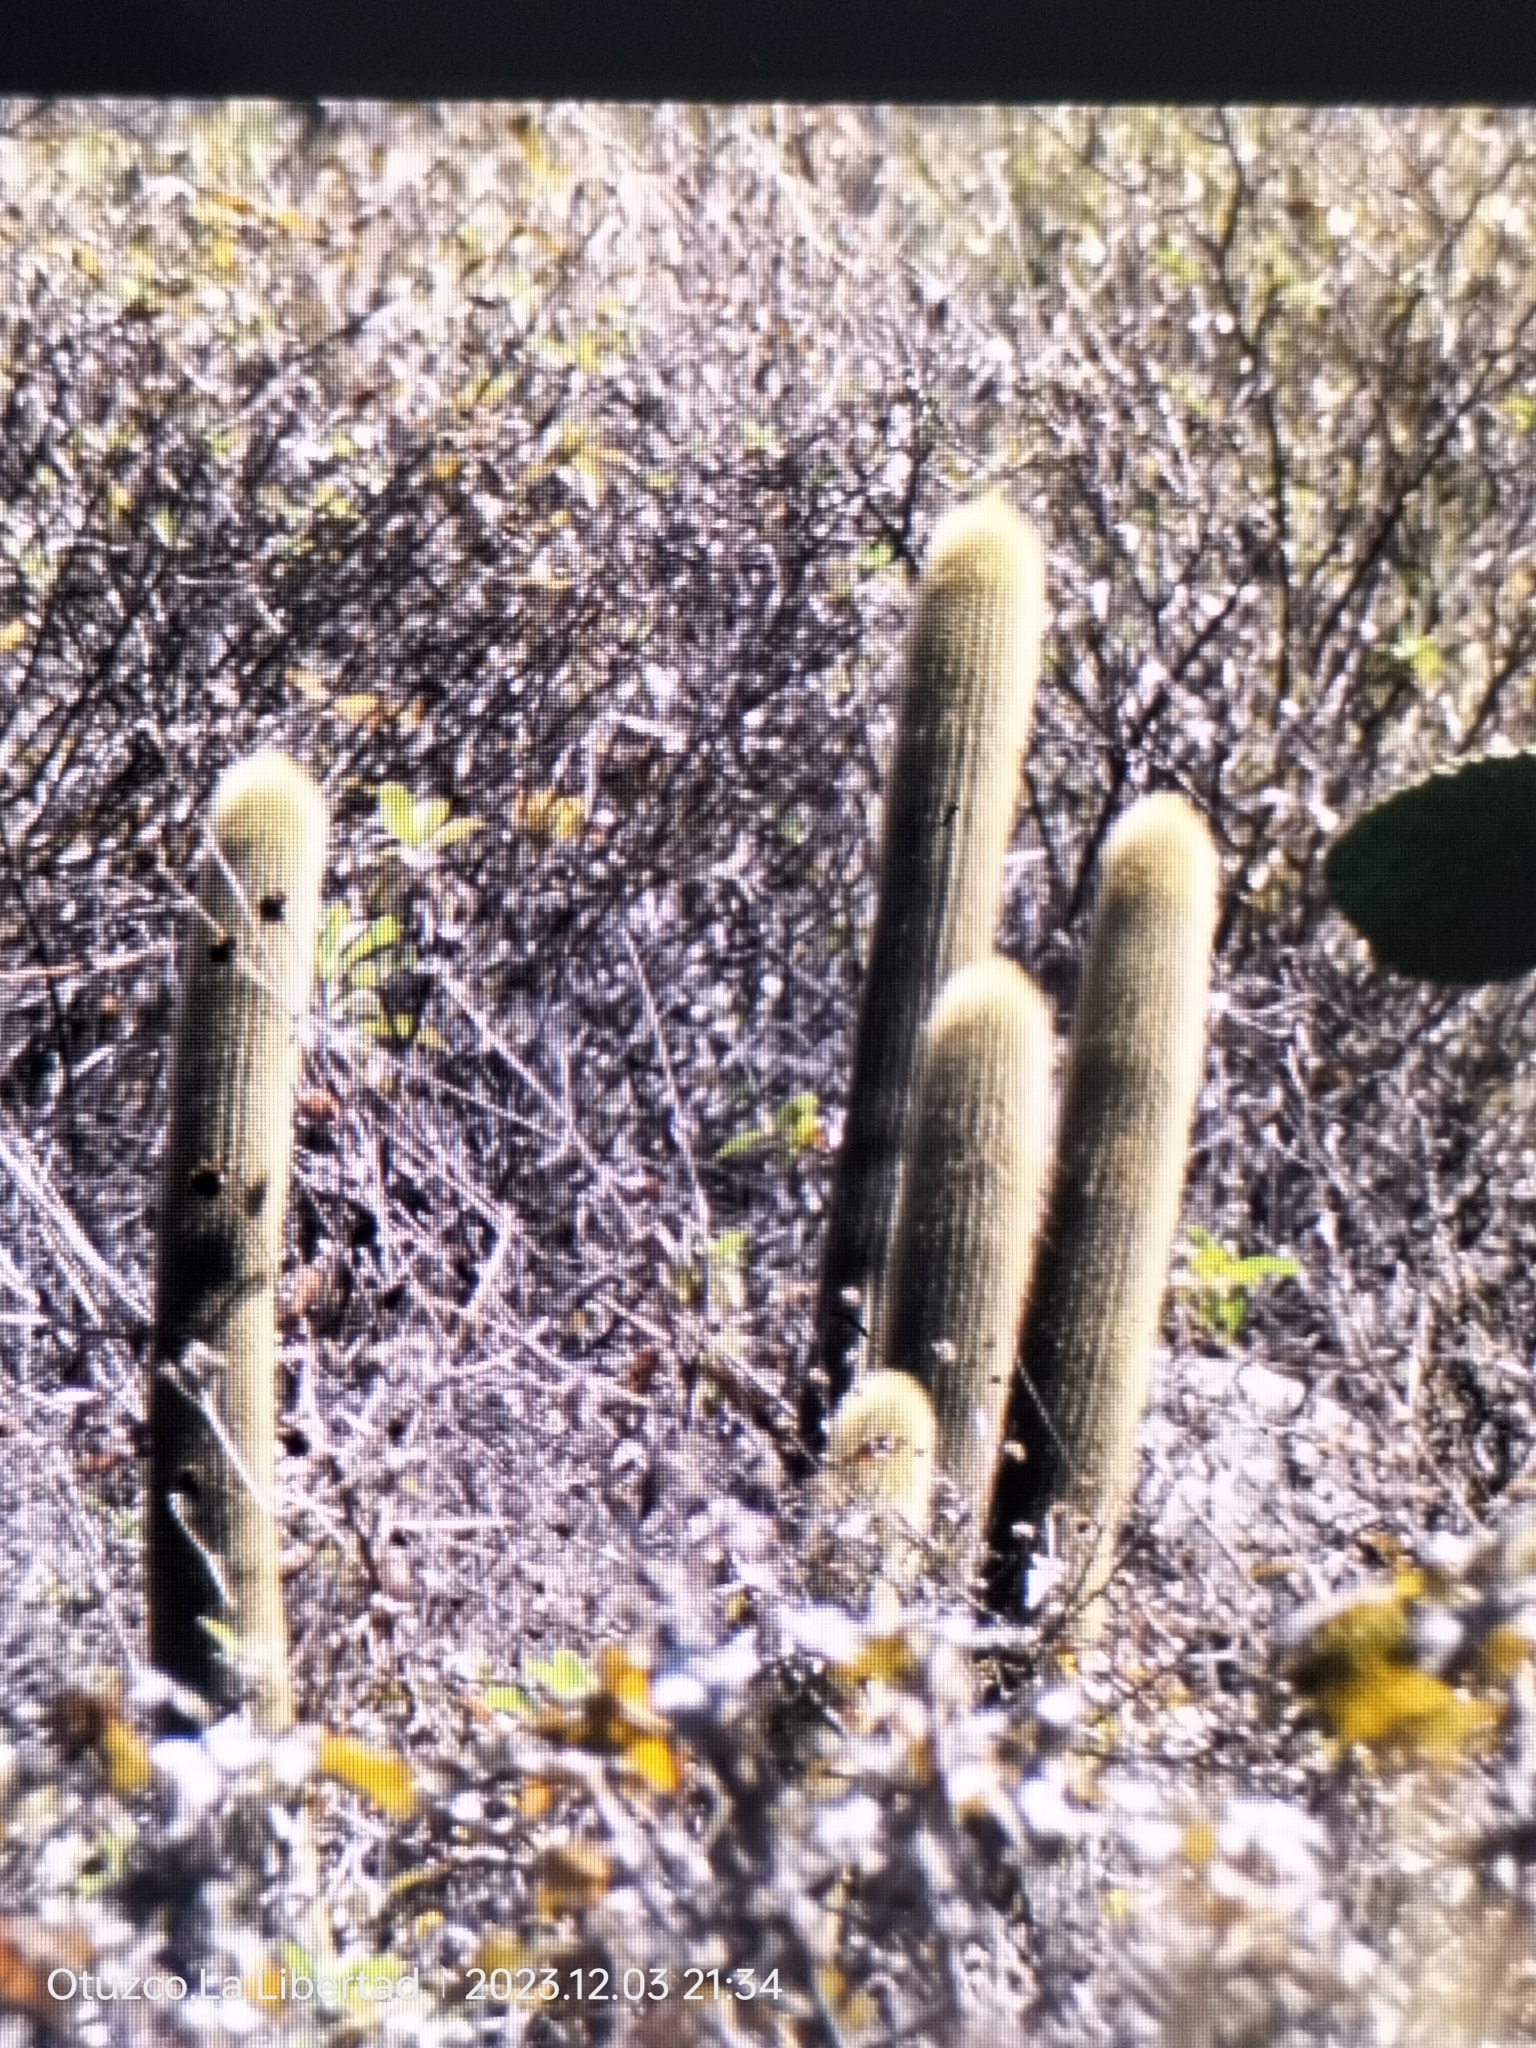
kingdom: Plantae
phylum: Tracheophyta
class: Magnoliopsida
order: Caryophyllales
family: Cactaceae
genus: Haageocereus
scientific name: Haageocereus pseudomelanostele
